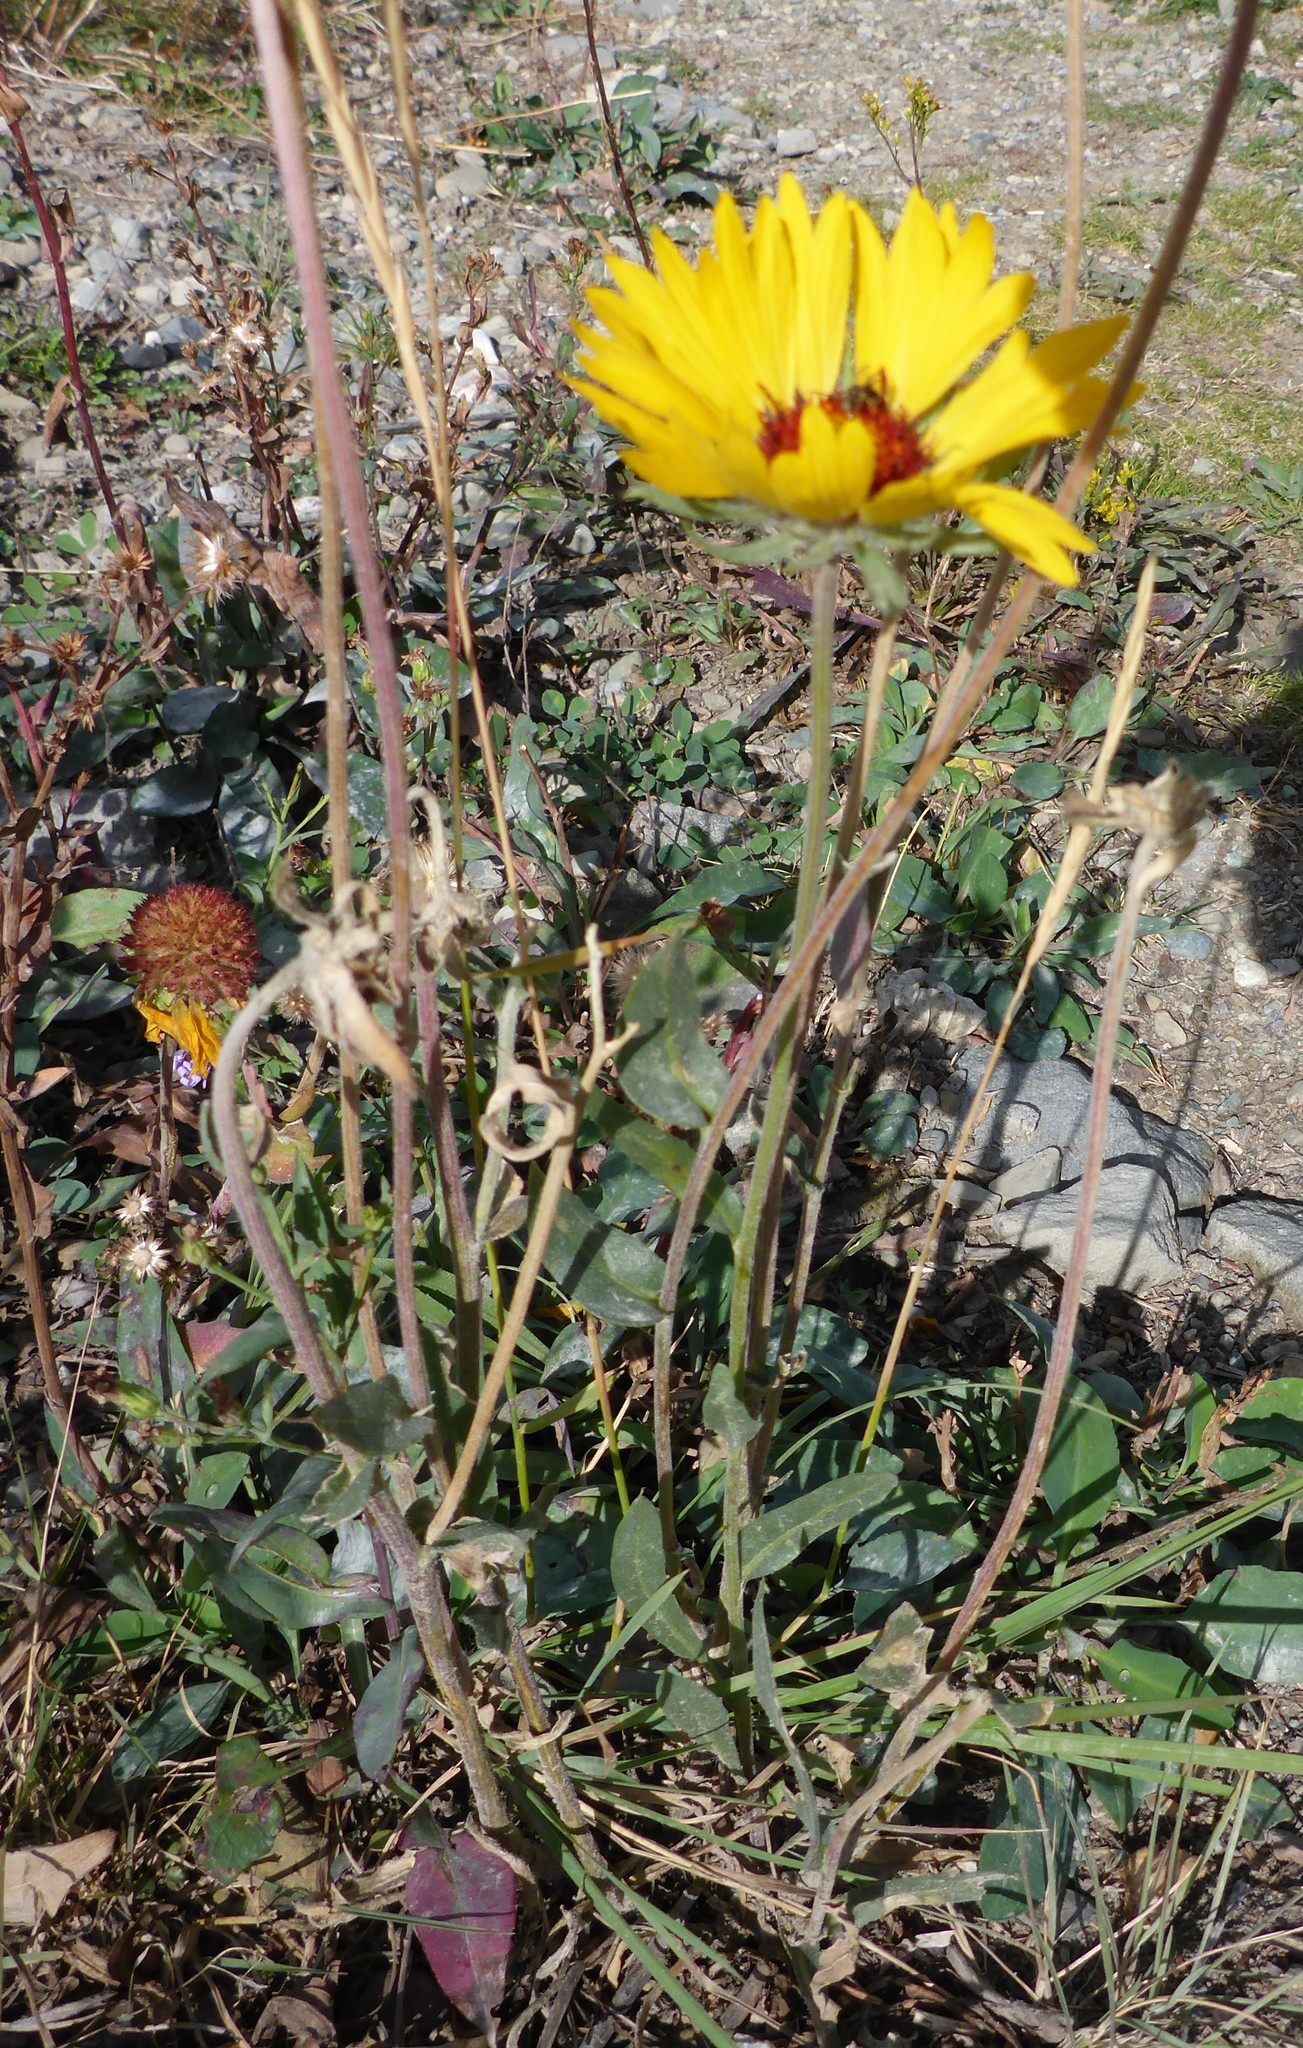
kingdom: Plantae
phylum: Tracheophyta
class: Magnoliopsida
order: Asterales
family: Asteraceae
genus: Gaillardia
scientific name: Gaillardia aristata
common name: Blanket-flower
